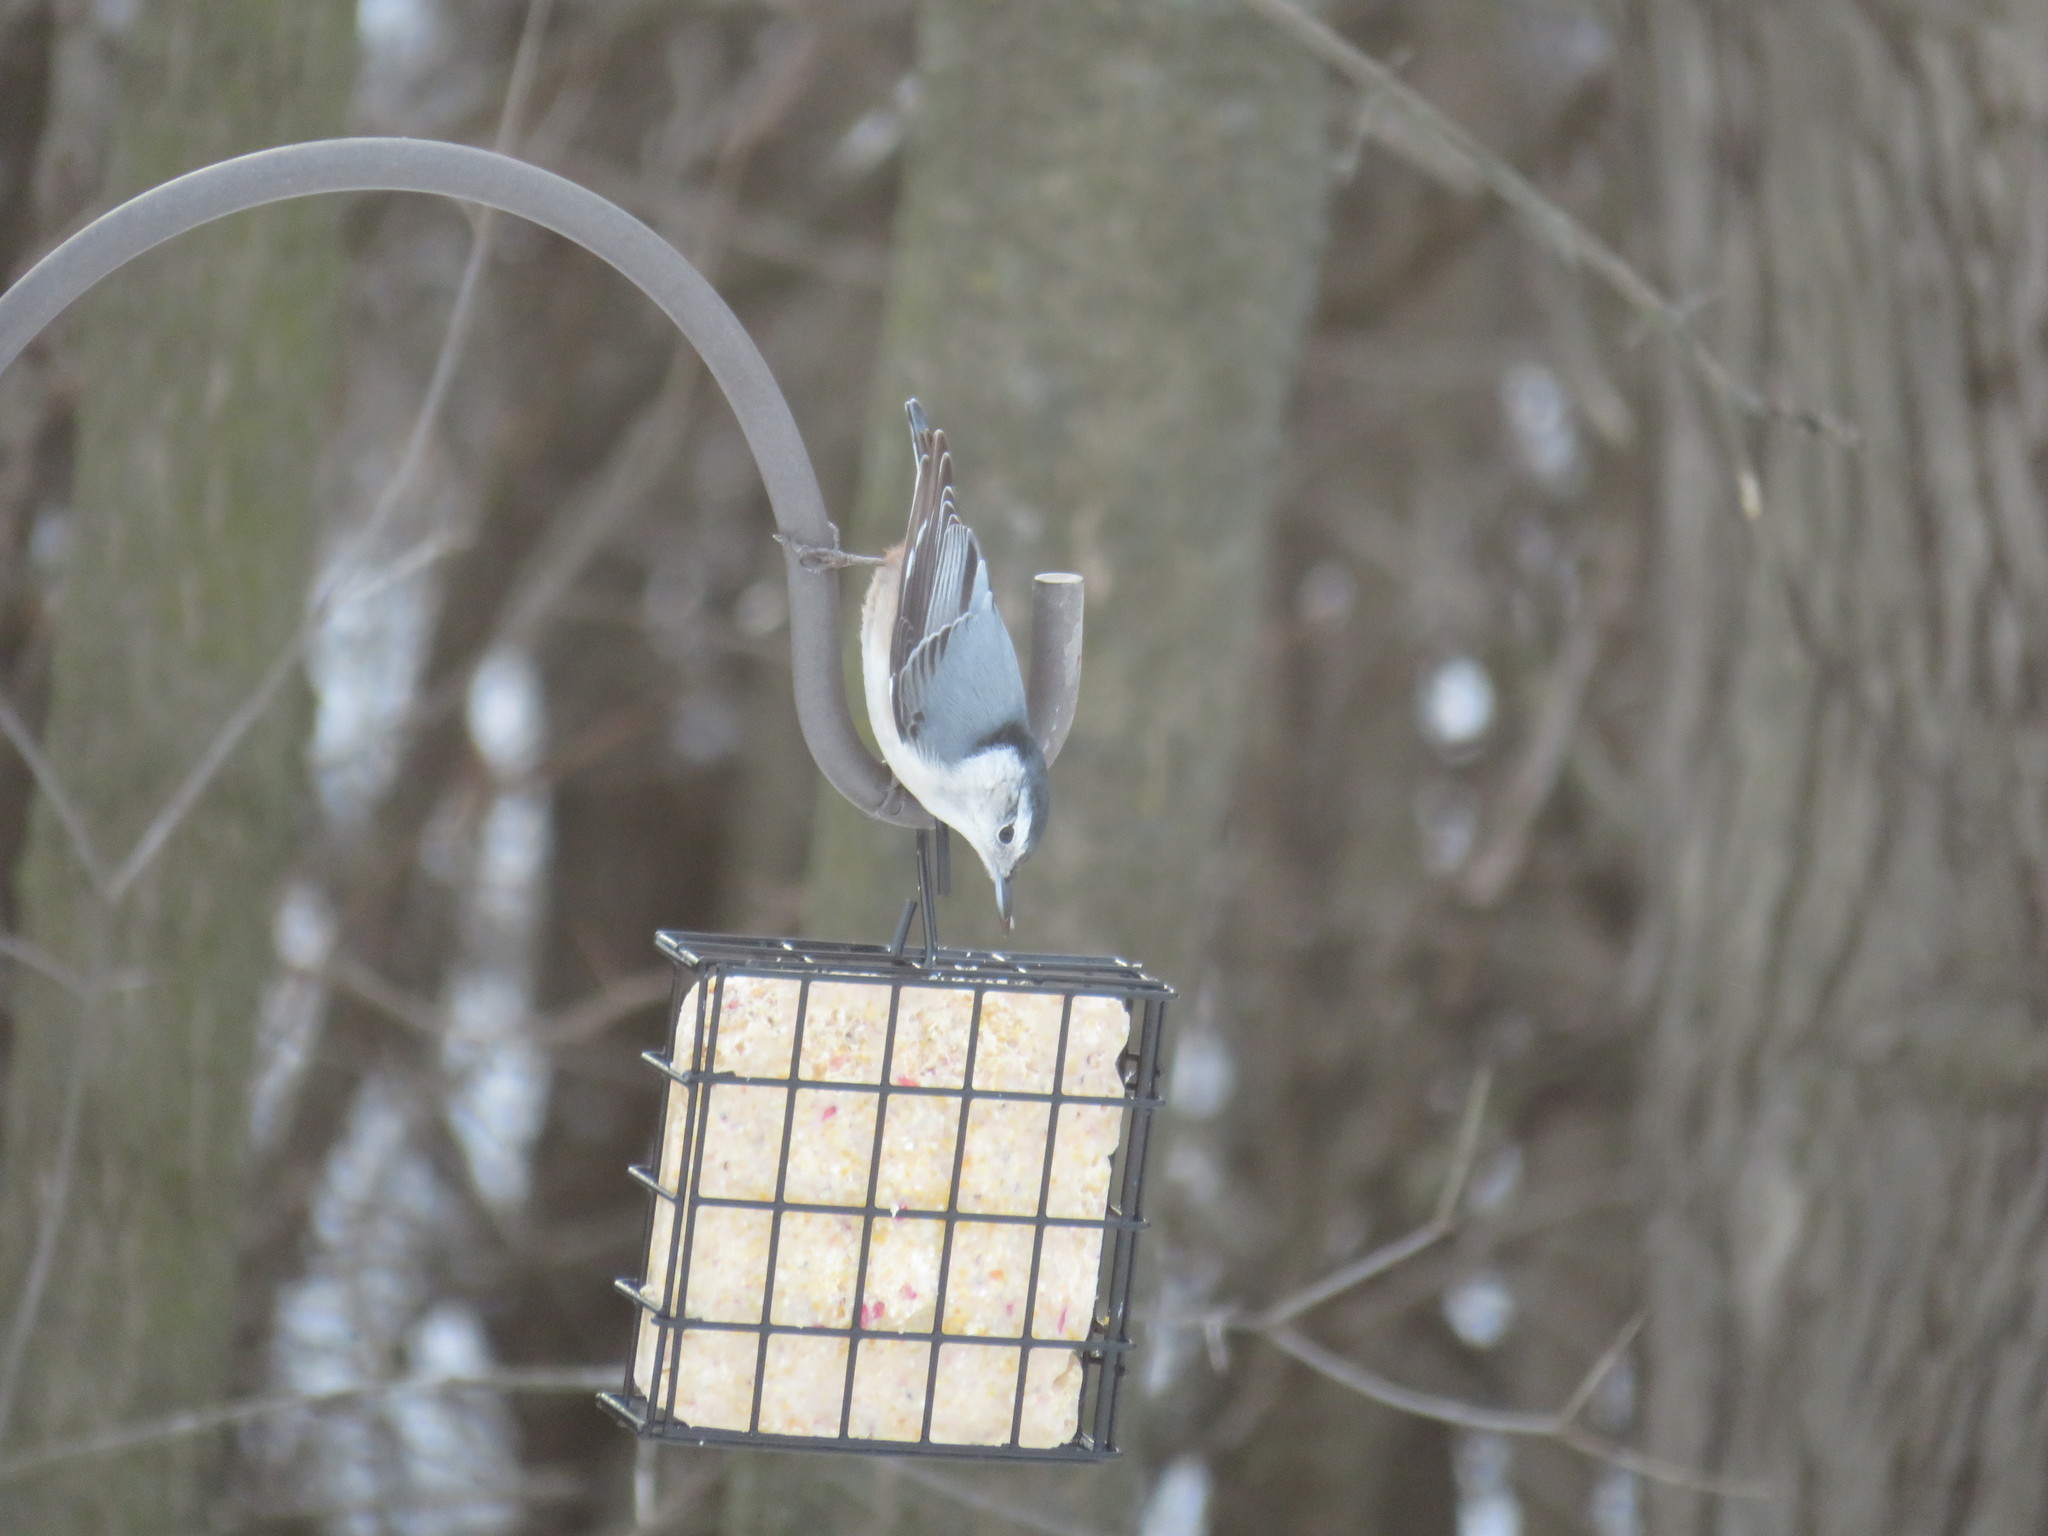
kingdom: Animalia
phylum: Chordata
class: Aves
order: Passeriformes
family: Sittidae
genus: Sitta
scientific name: Sitta carolinensis
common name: White-breasted nuthatch
